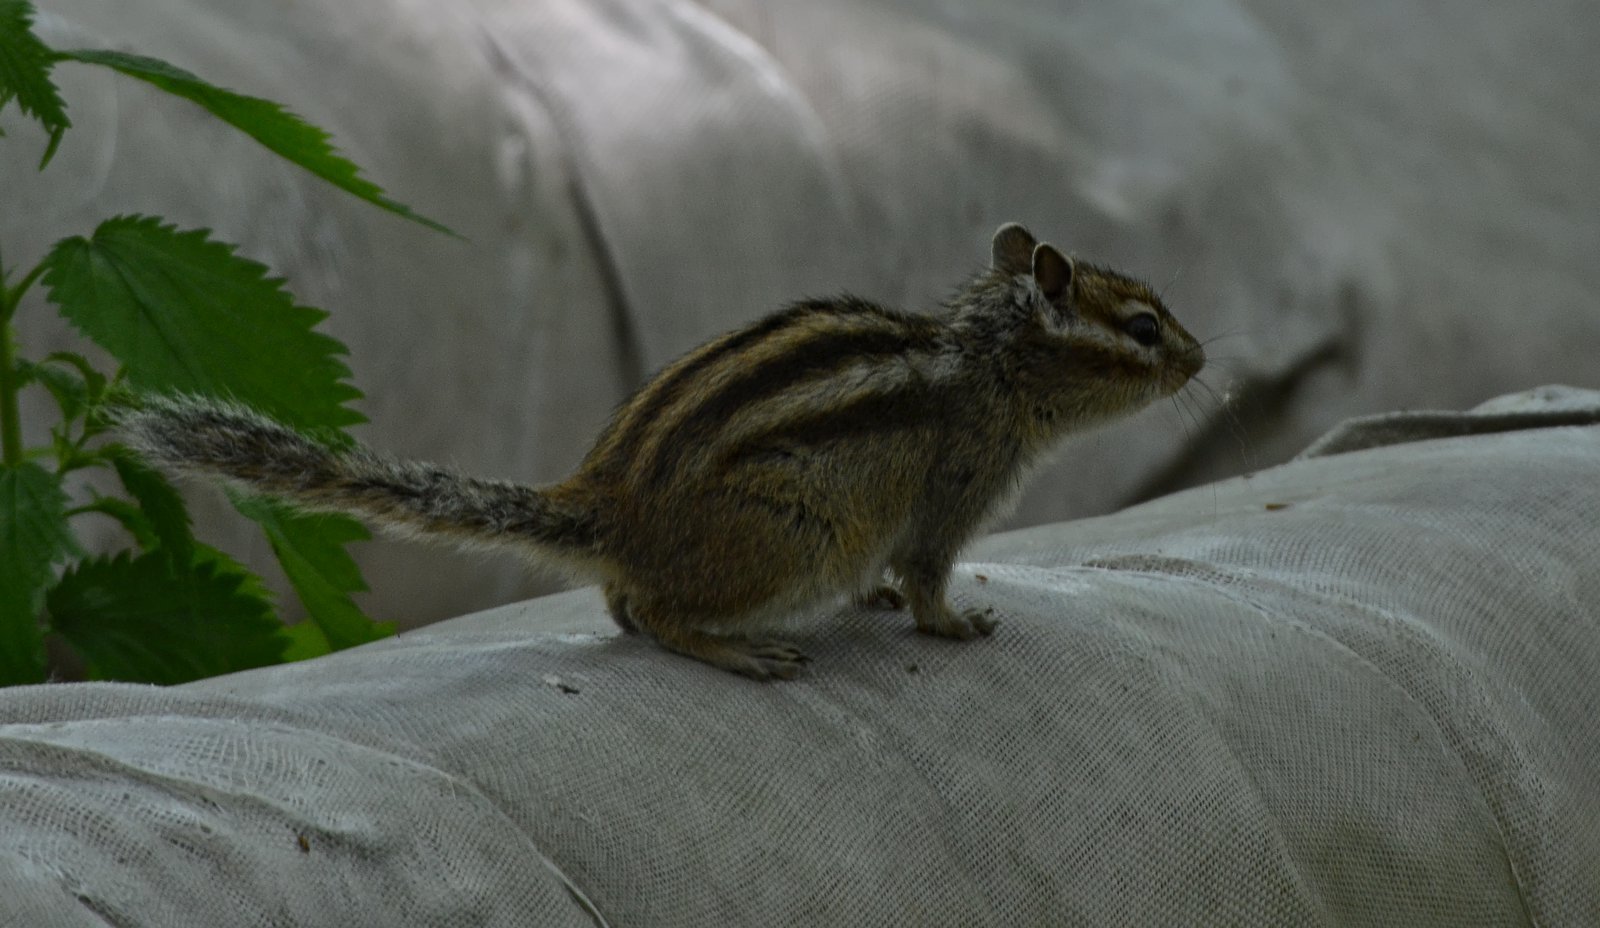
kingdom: Animalia
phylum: Chordata
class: Mammalia
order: Rodentia
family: Sciuridae
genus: Tamias
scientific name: Tamias sibiricus
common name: Siberian chipmunk
